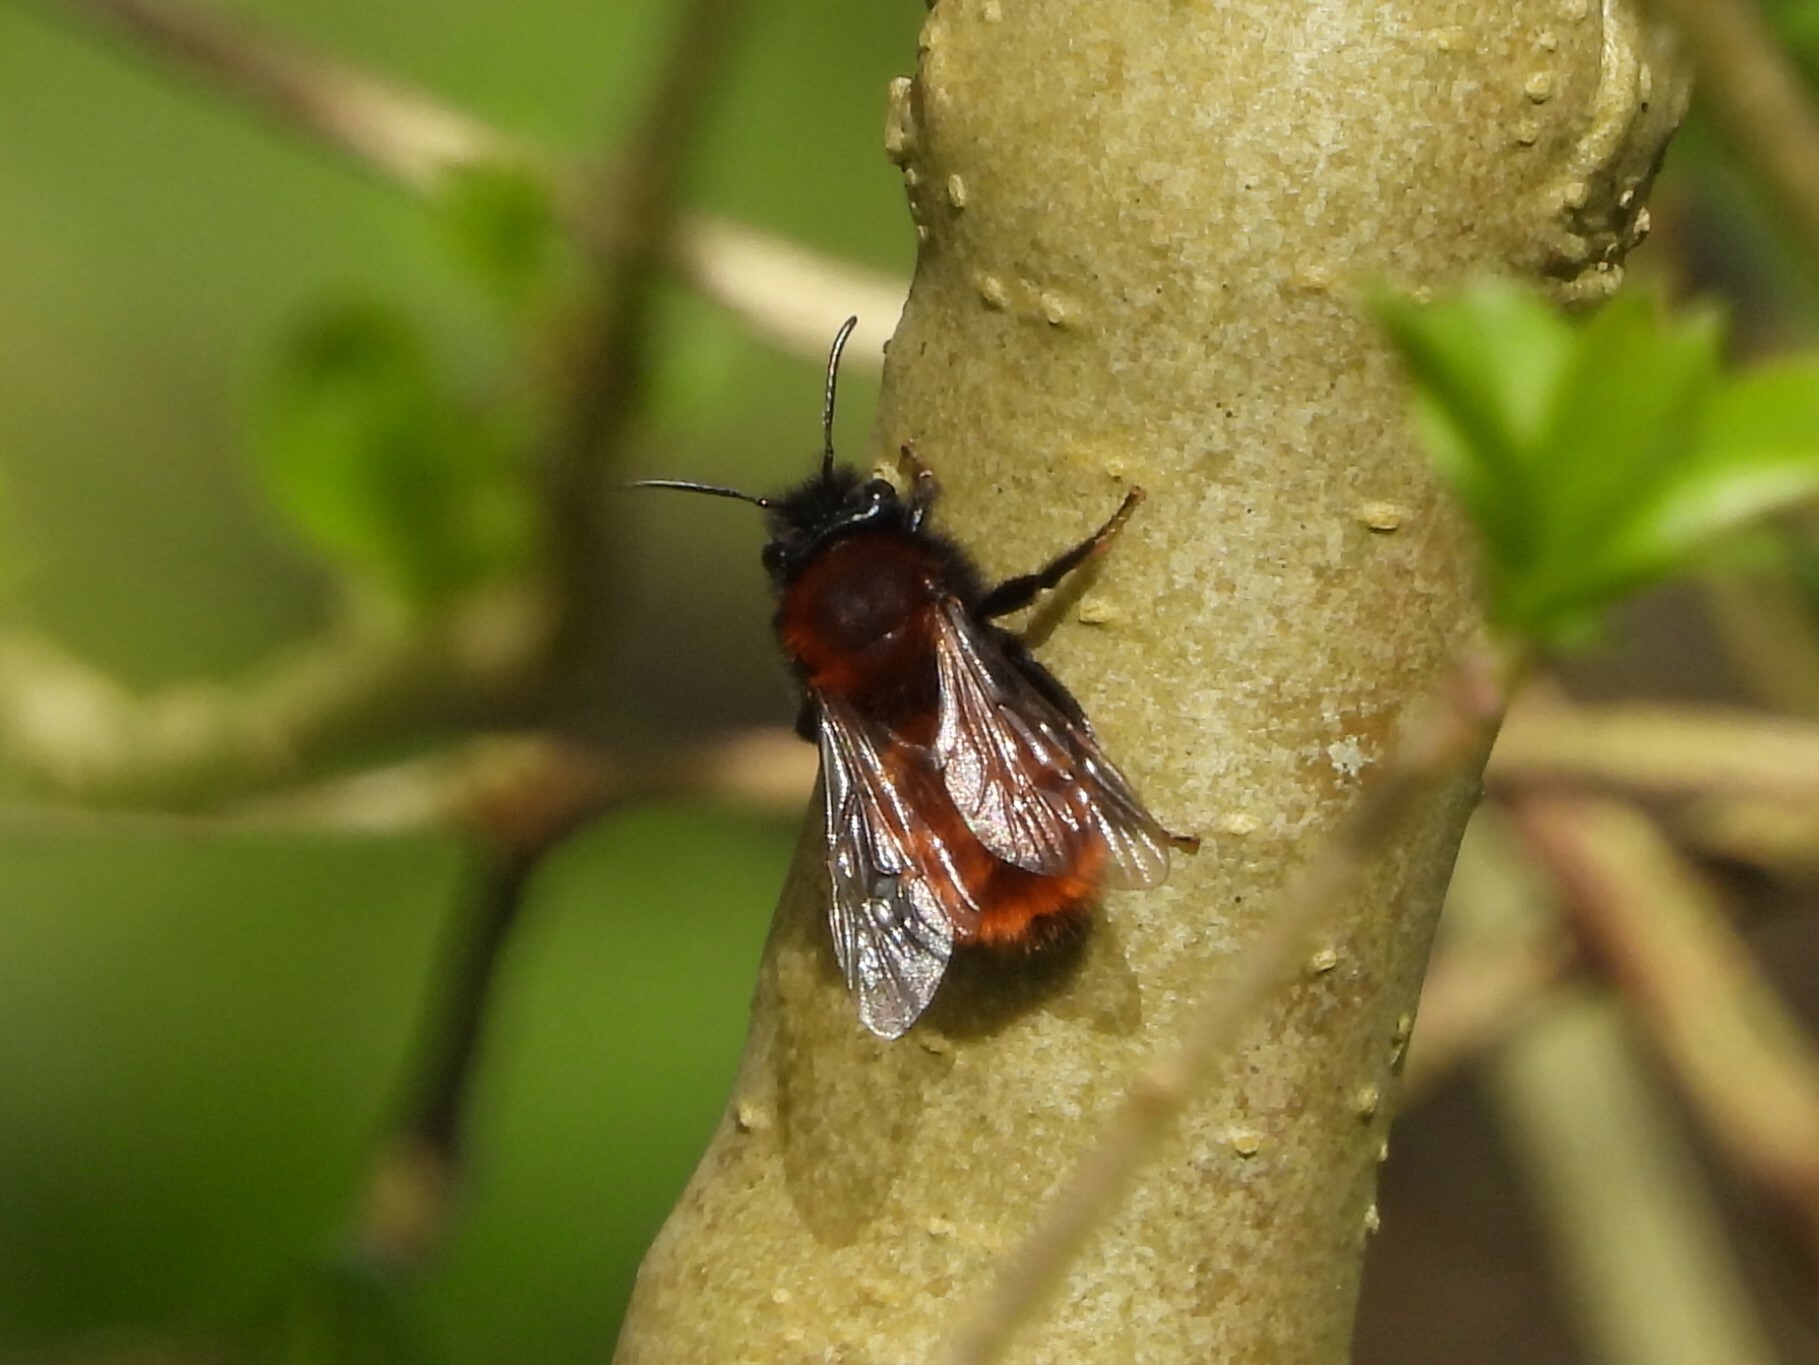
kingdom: Animalia
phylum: Arthropoda
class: Insecta
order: Hymenoptera
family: Andrenidae
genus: Andrena
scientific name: Andrena fulva
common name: Tawny mining bee
